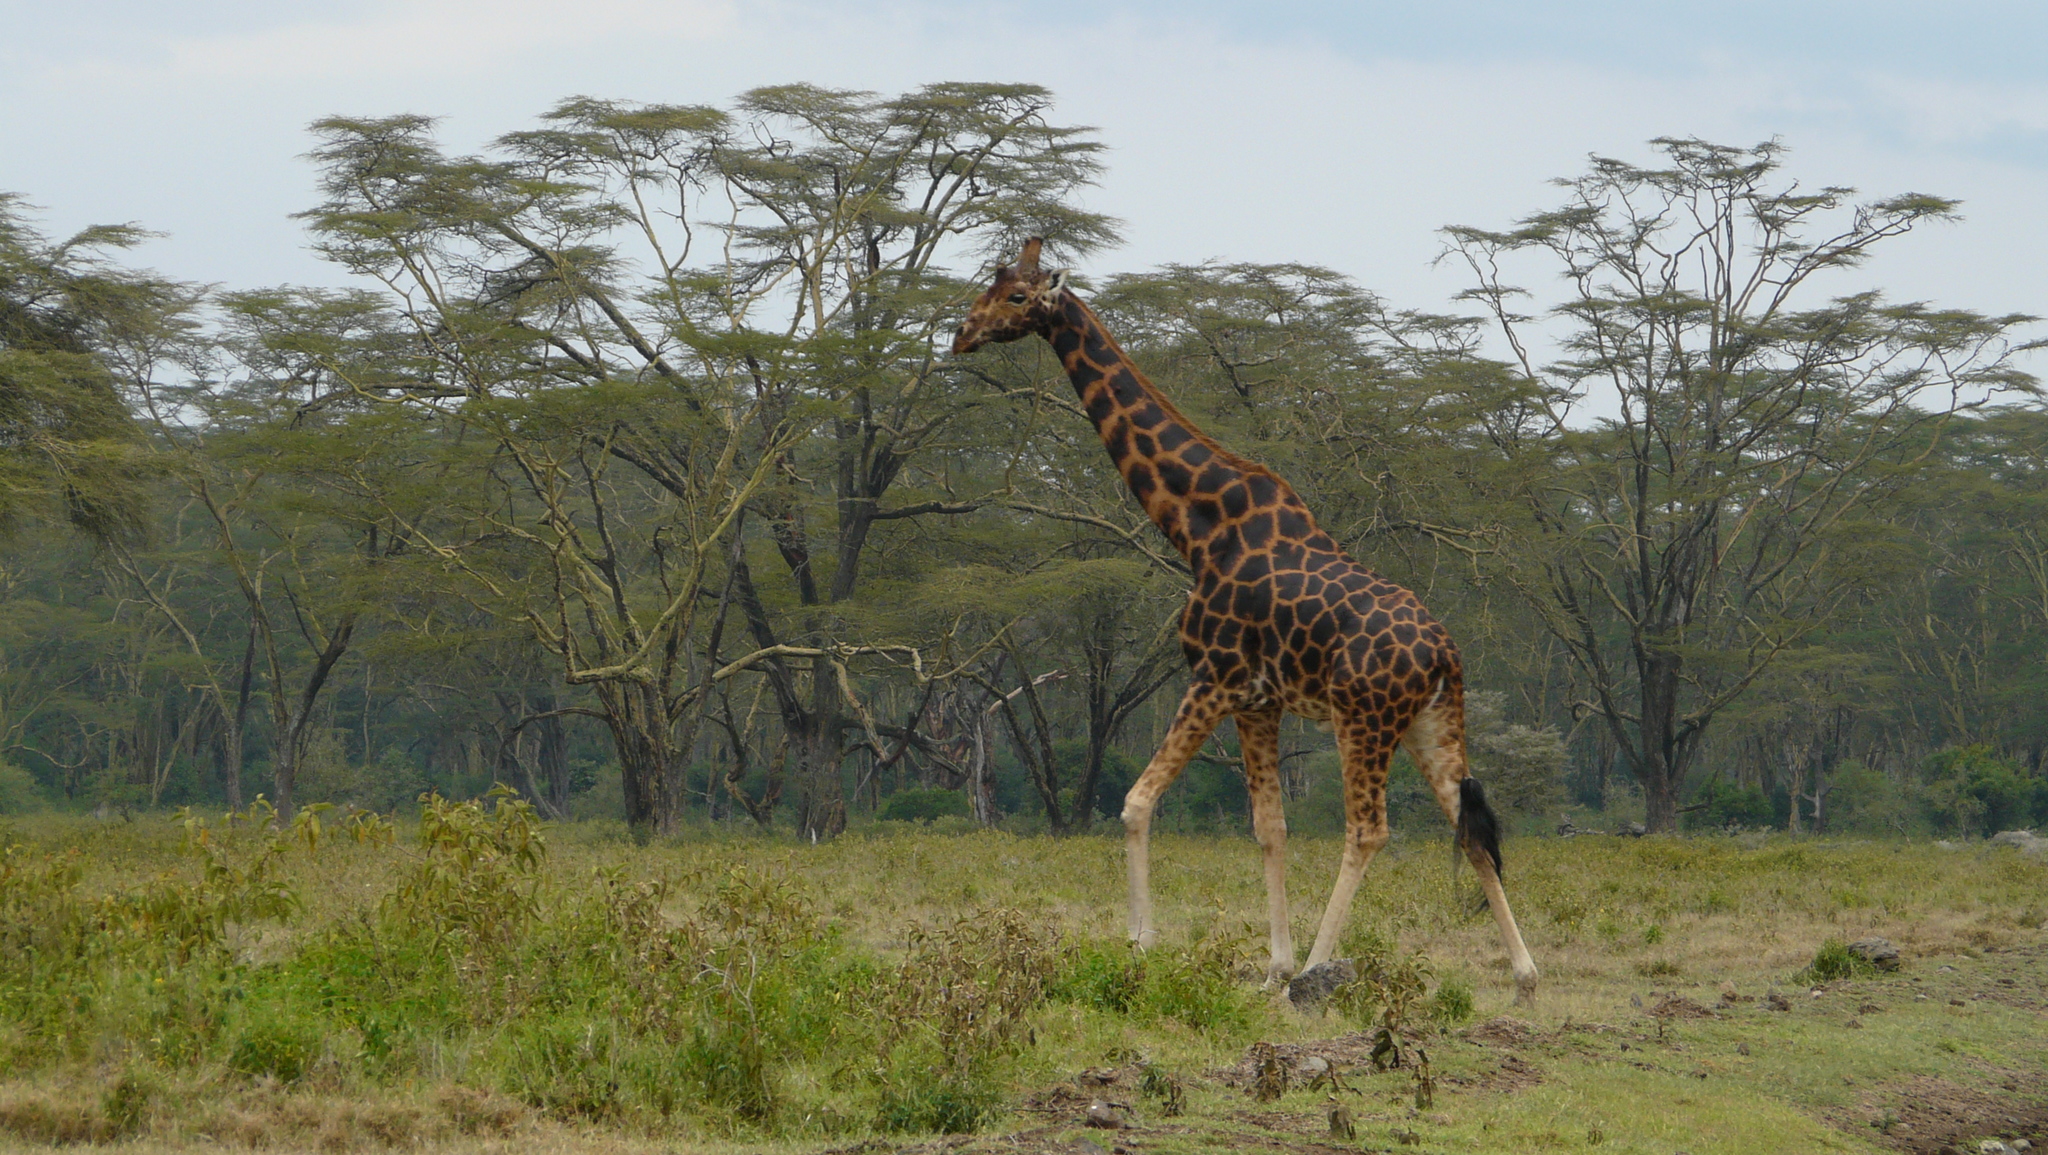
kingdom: Animalia
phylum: Chordata
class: Mammalia
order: Artiodactyla
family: Giraffidae
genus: Giraffa
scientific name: Giraffa camelopardalis
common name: Giraffe
